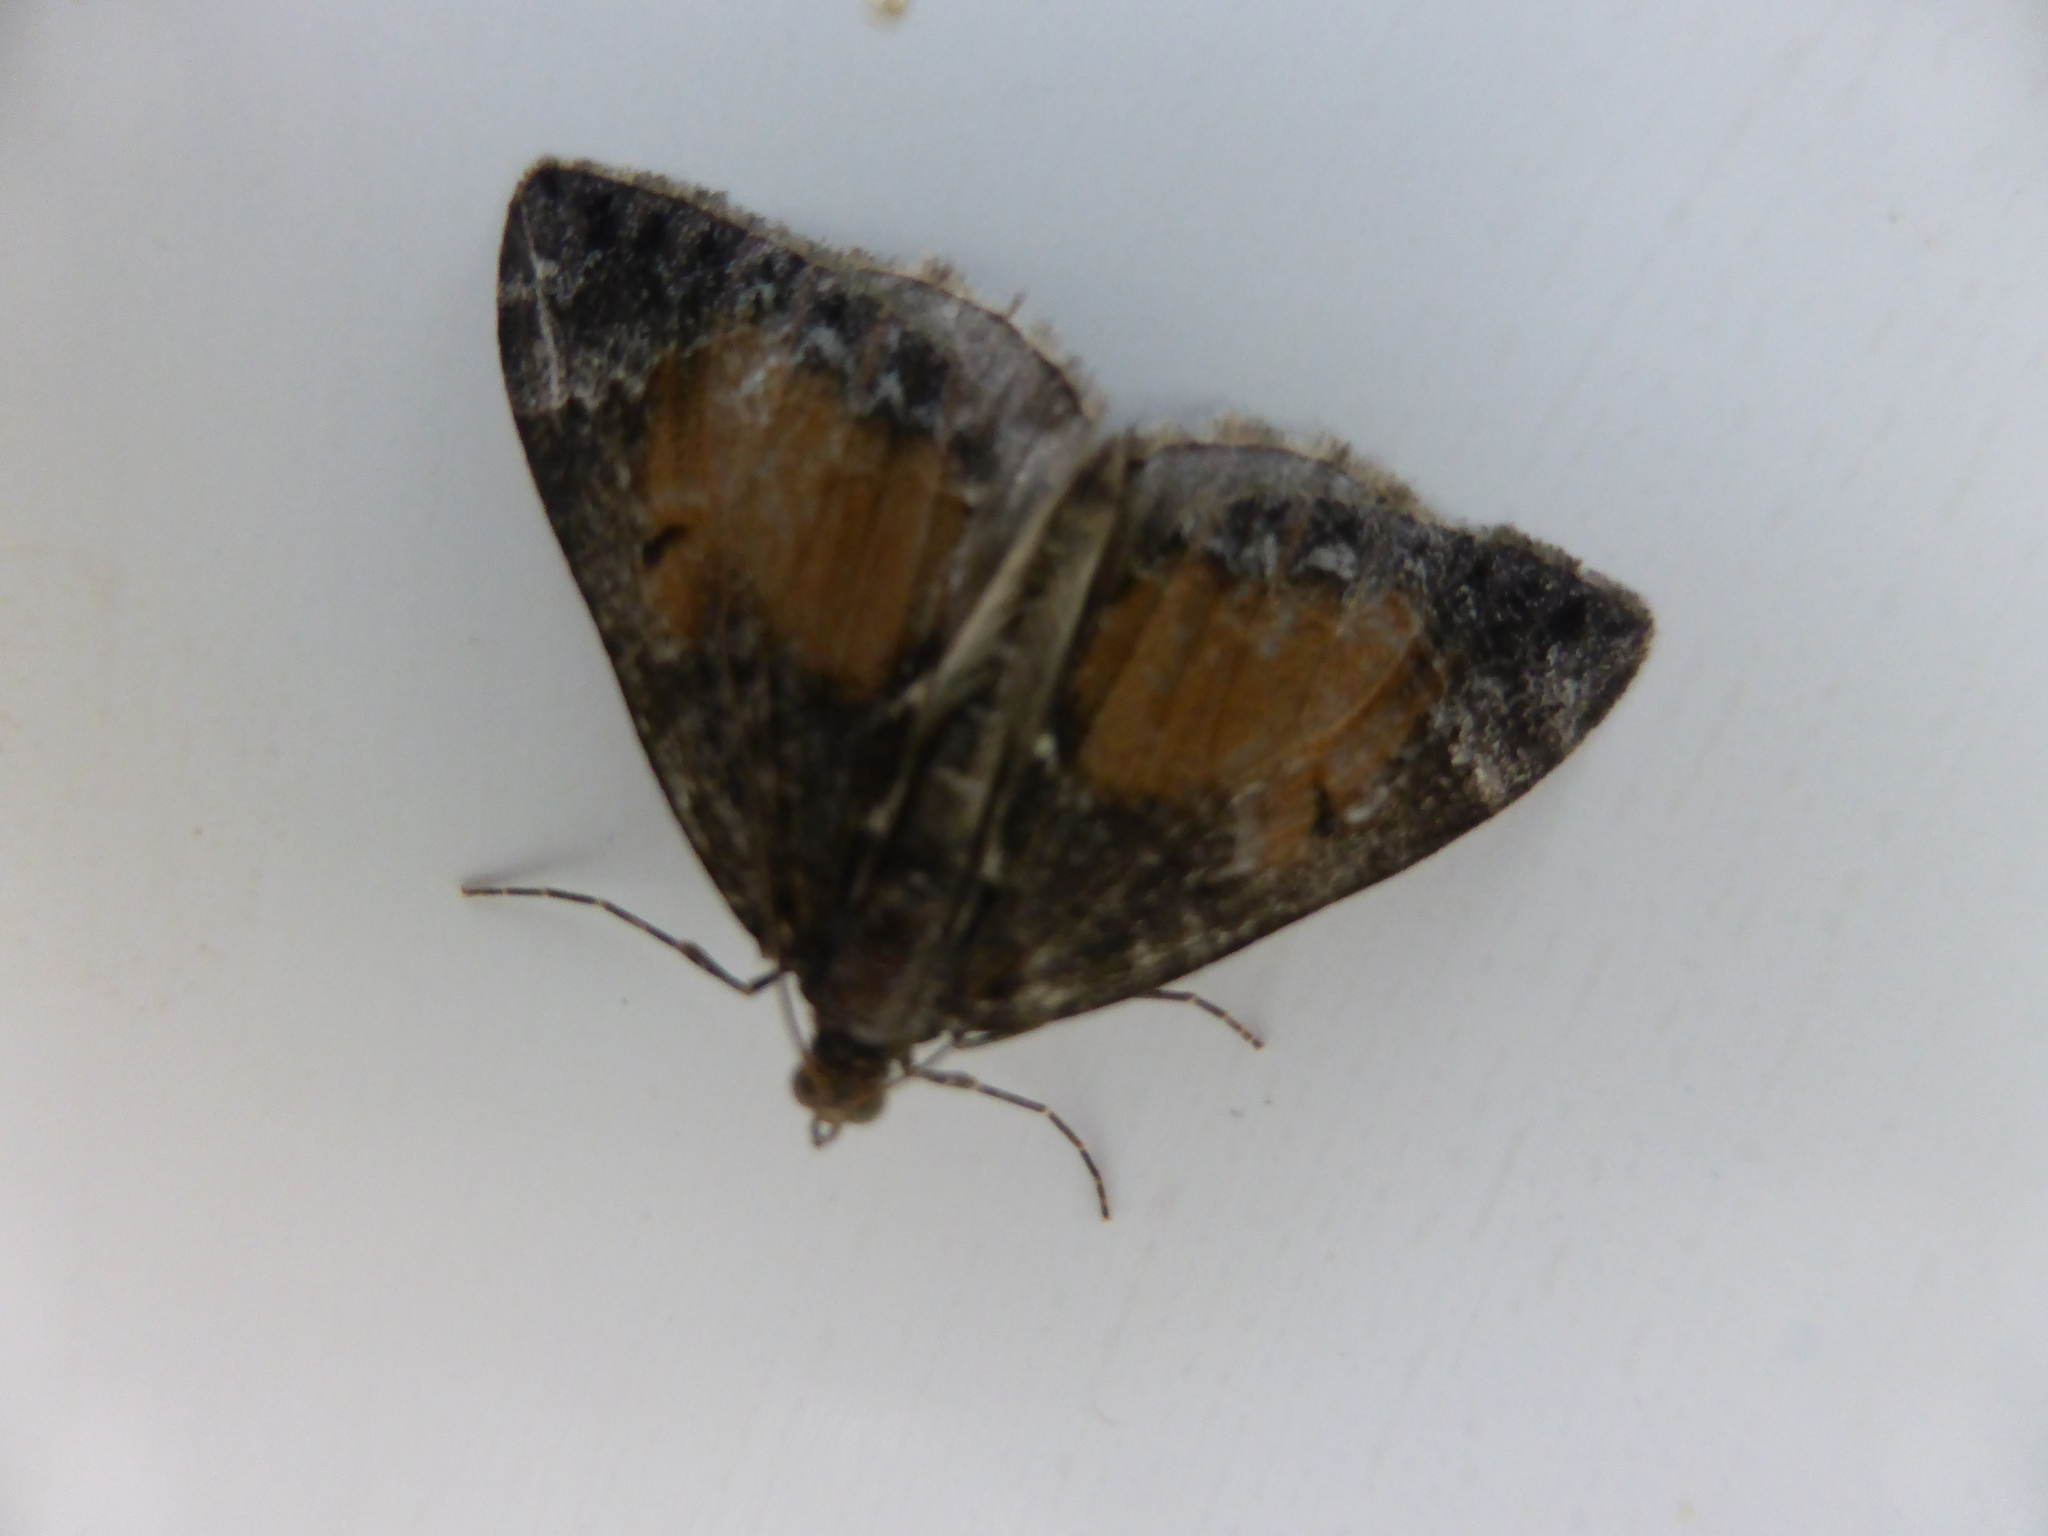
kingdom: Animalia
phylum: Arthropoda
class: Insecta
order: Lepidoptera
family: Geometridae
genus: Dysstroma
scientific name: Dysstroma truncata
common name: Common marbled carpet
